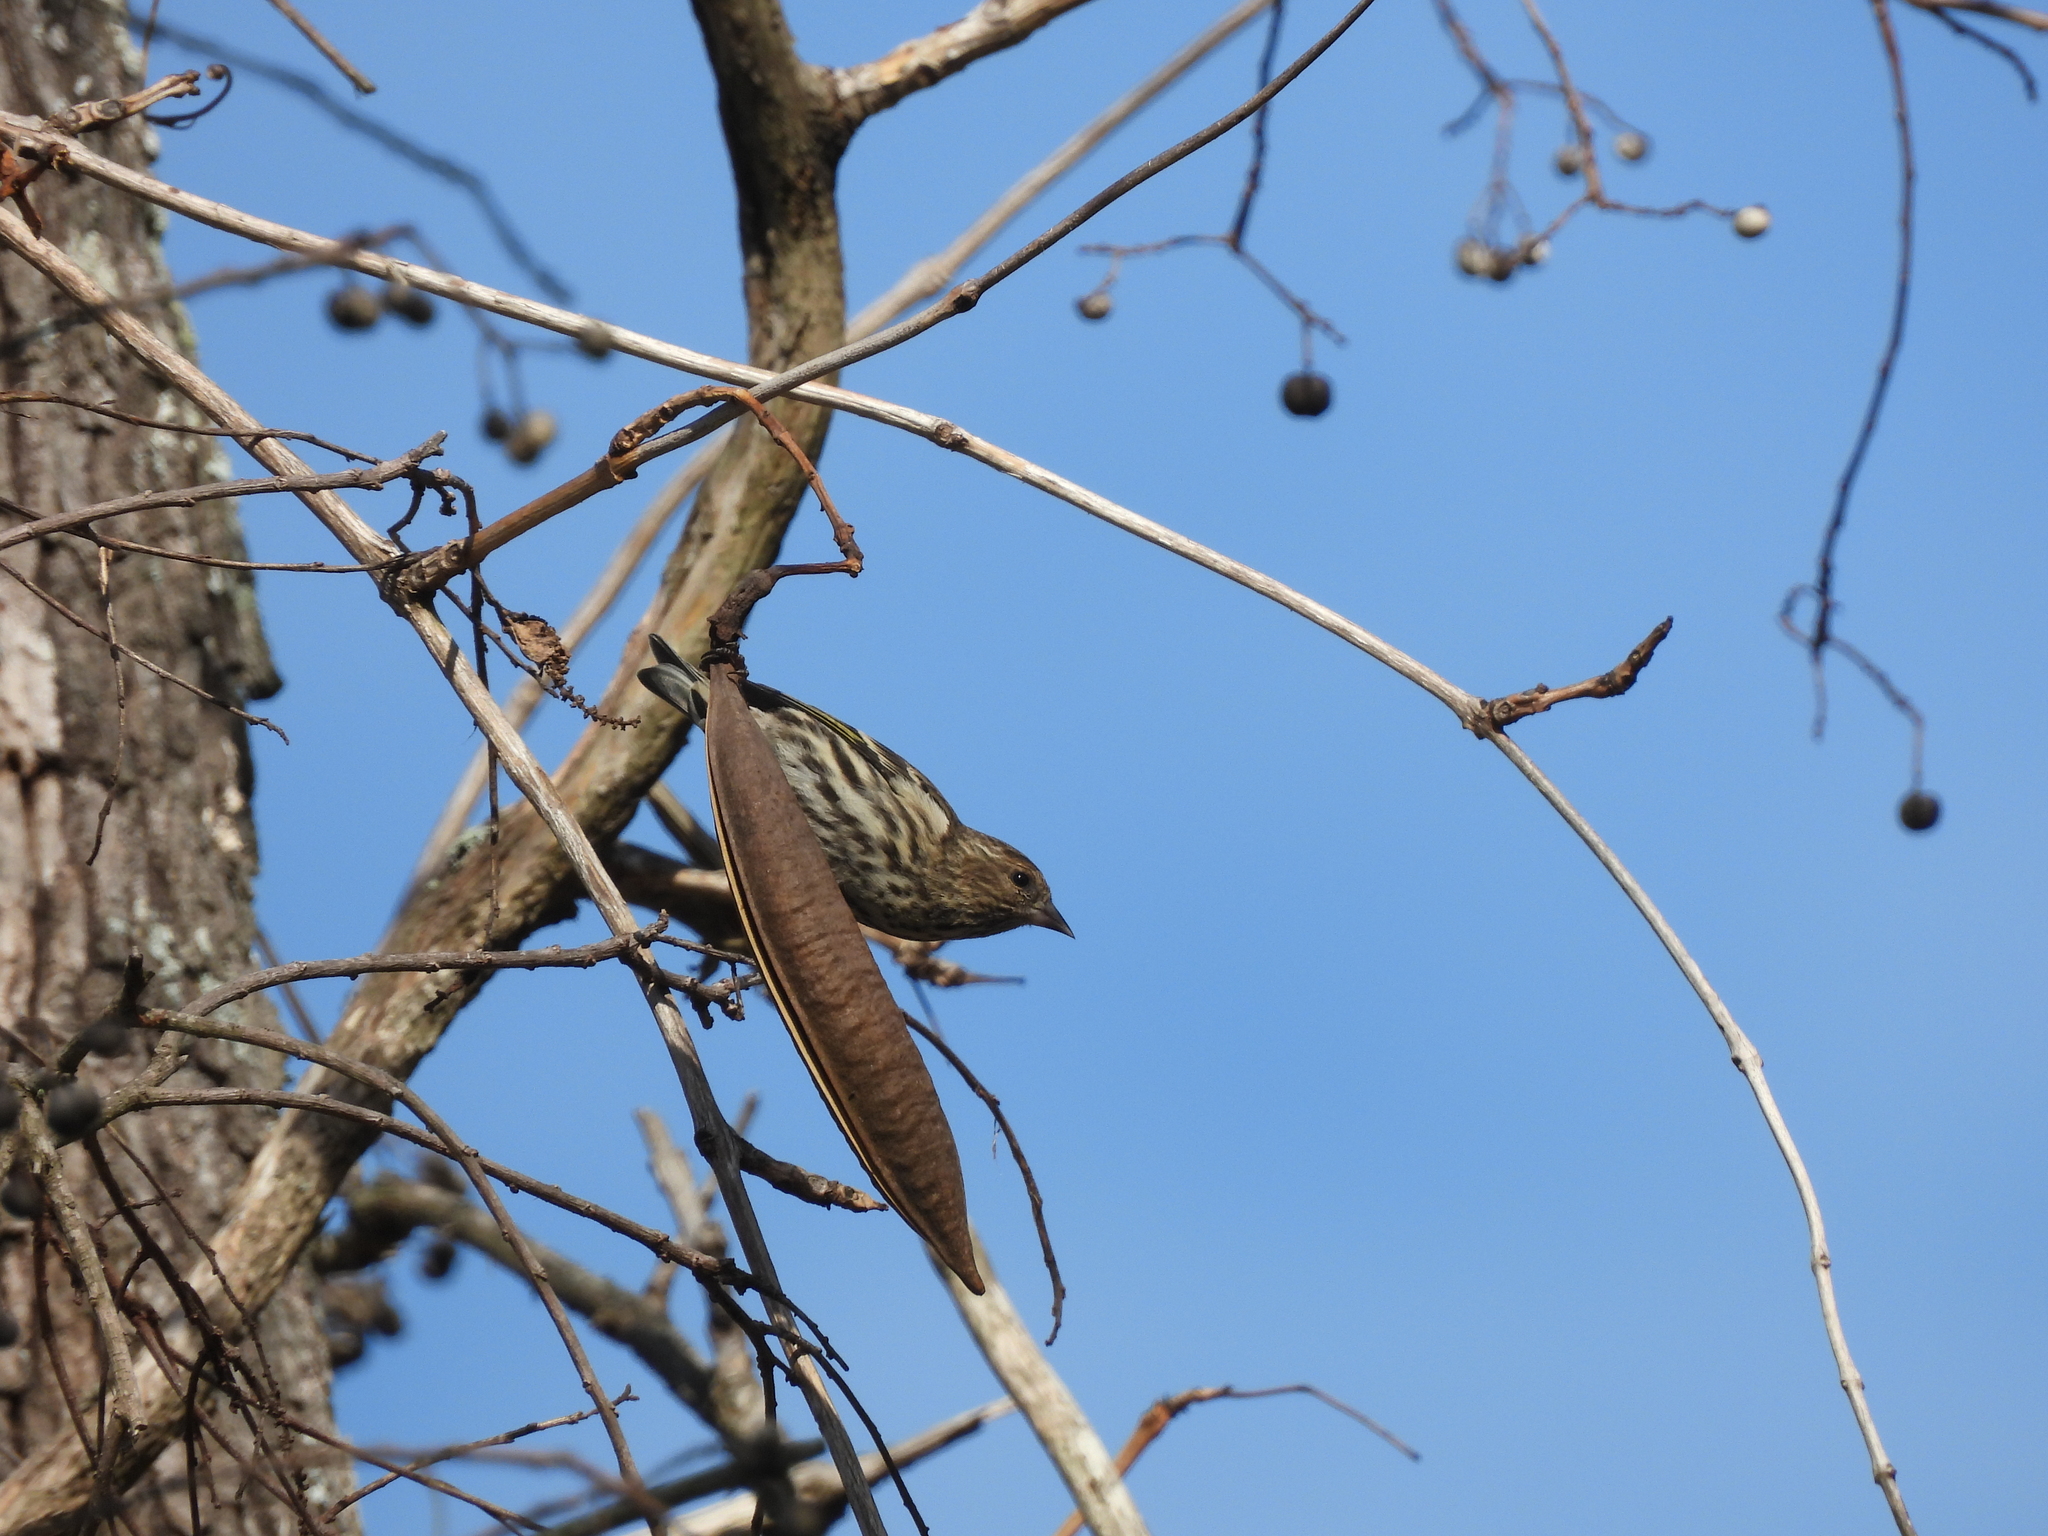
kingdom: Animalia
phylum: Chordata
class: Aves
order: Passeriformes
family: Fringillidae
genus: Spinus
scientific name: Spinus pinus
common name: Pine siskin
